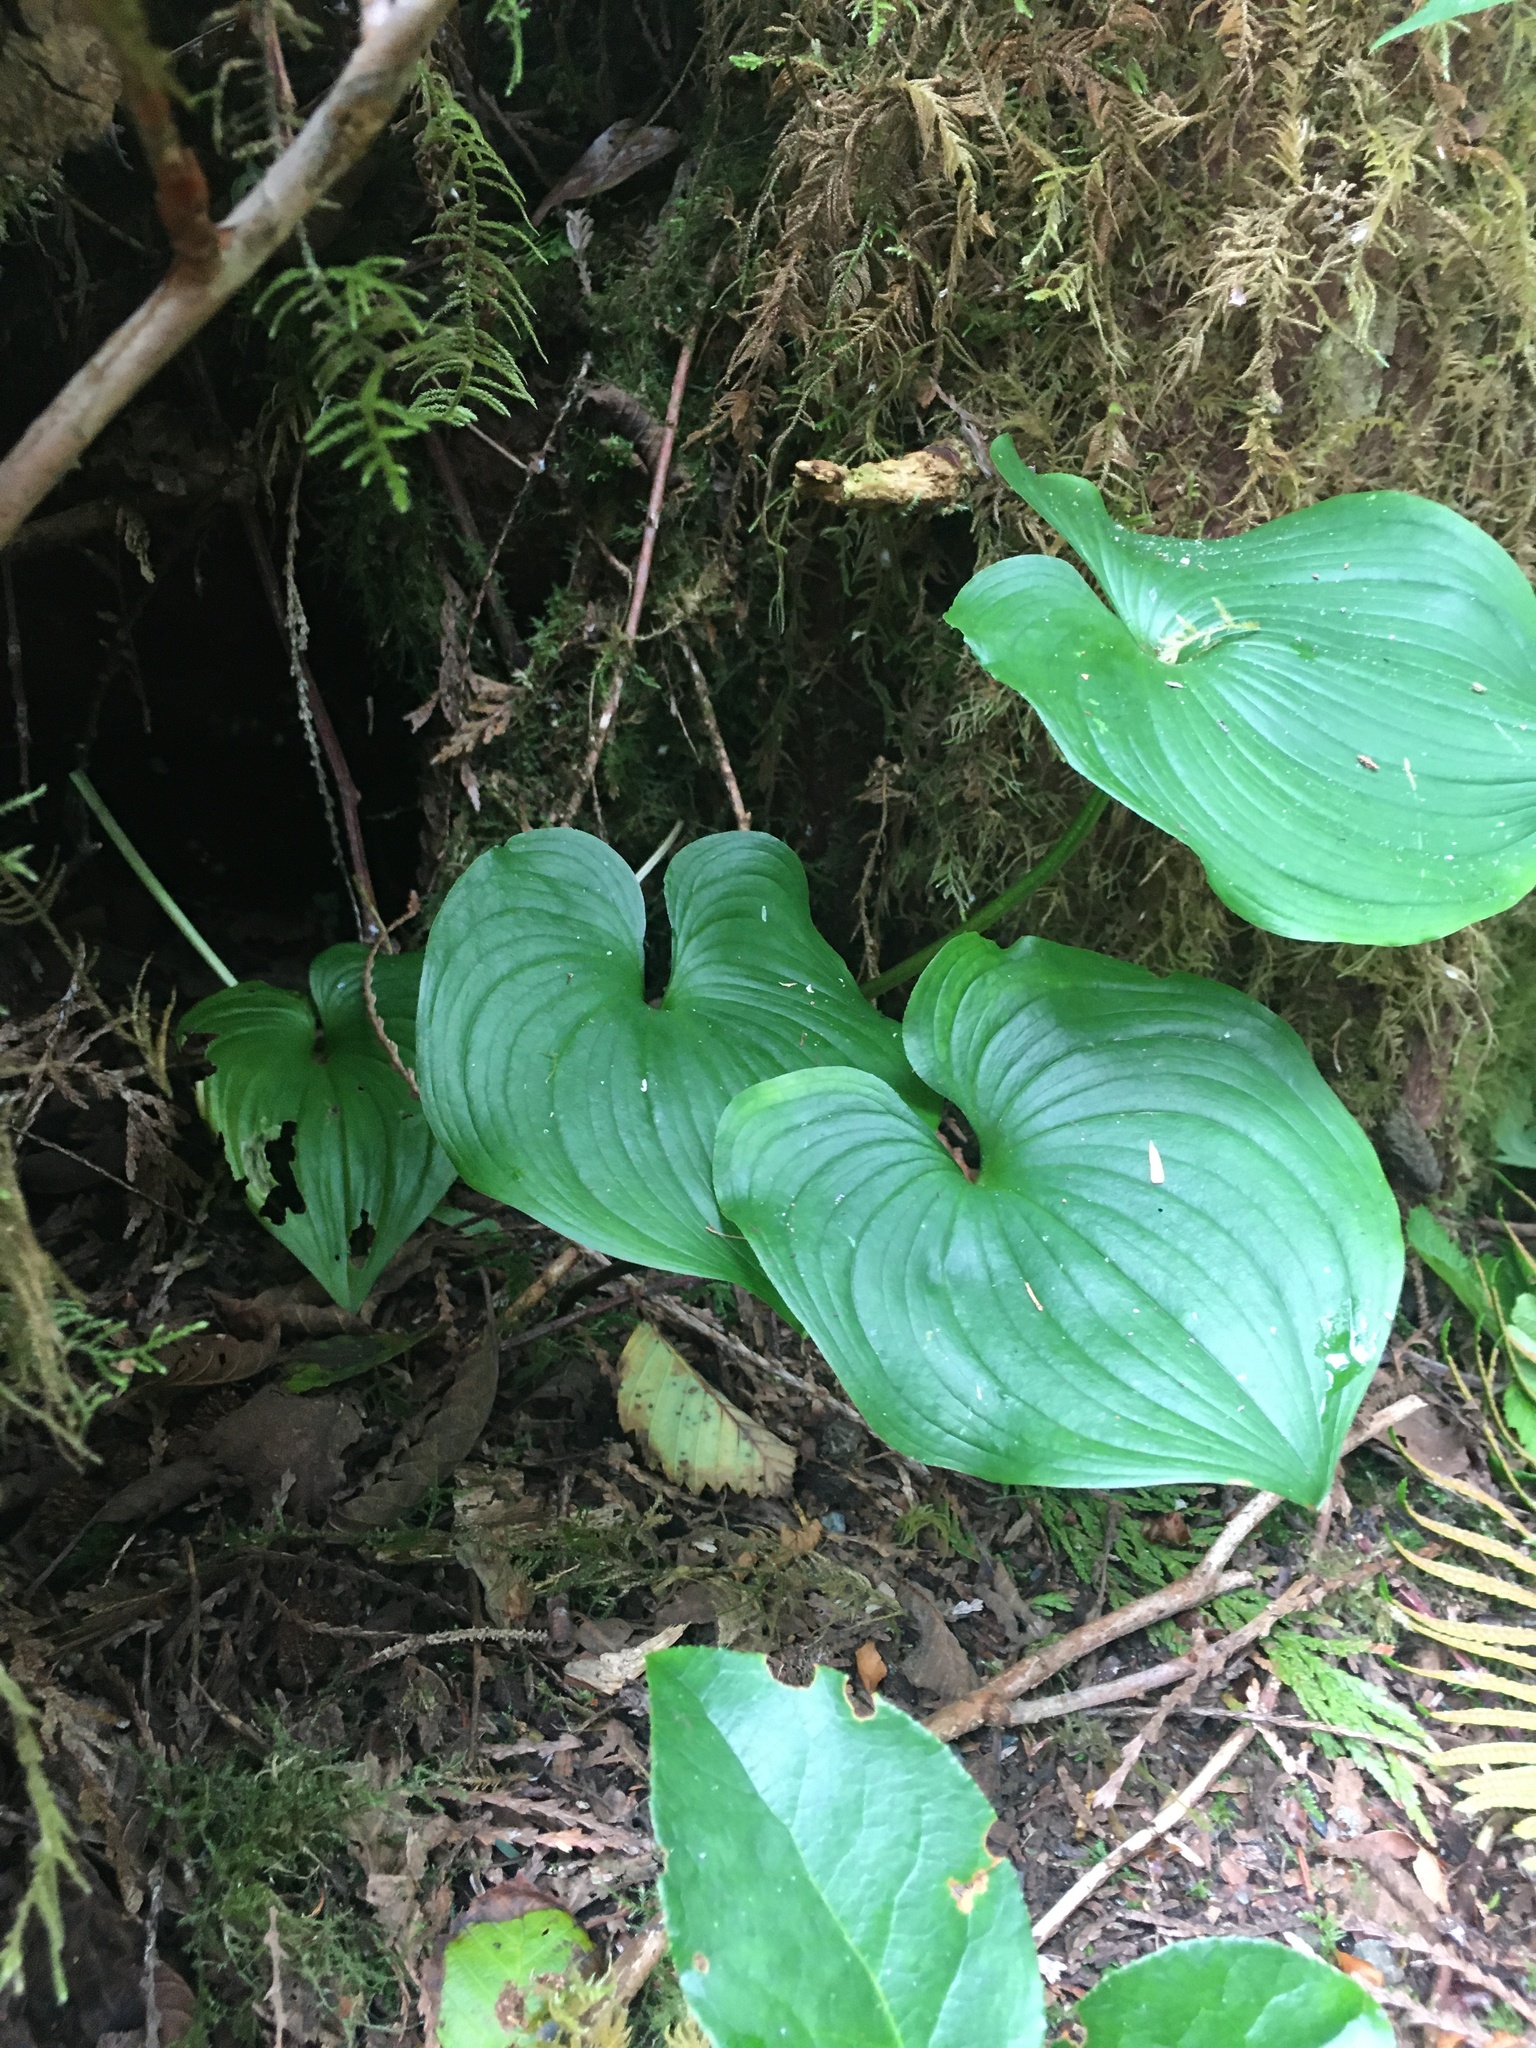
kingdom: Plantae
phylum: Tracheophyta
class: Liliopsida
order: Asparagales
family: Asparagaceae
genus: Maianthemum
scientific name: Maianthemum dilatatum
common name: False lily-of-the-valley
